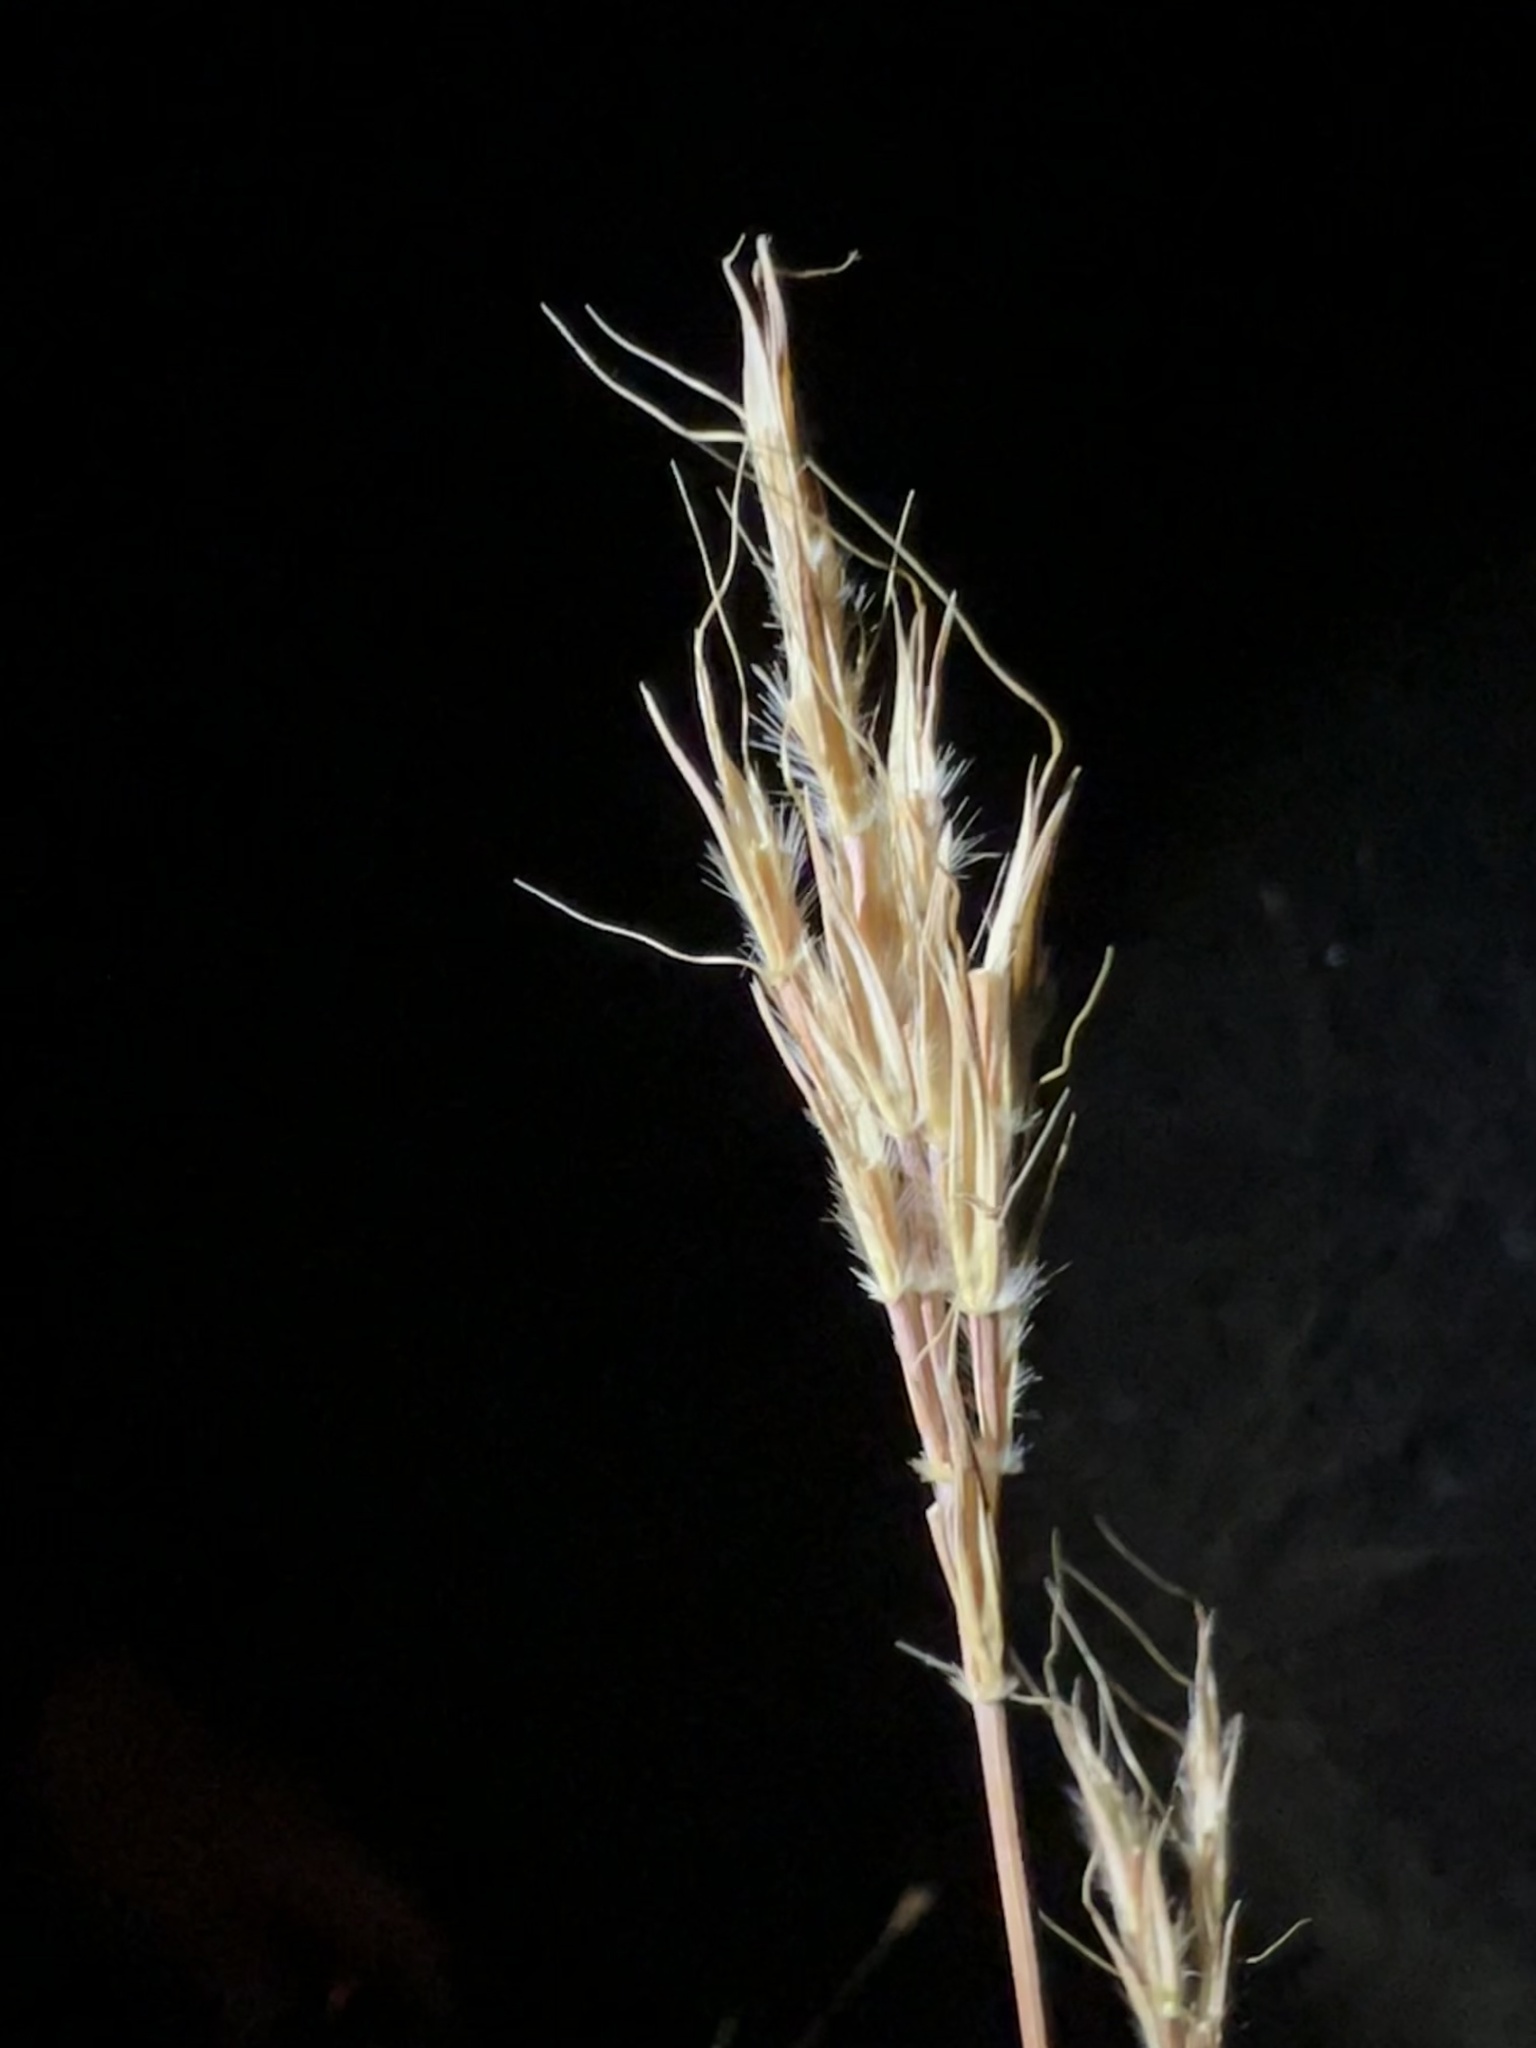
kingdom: Plantae
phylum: Tracheophyta
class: Liliopsida
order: Poales
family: Poaceae
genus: Andropogon
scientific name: Andropogon gerardi
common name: Big bluestem
